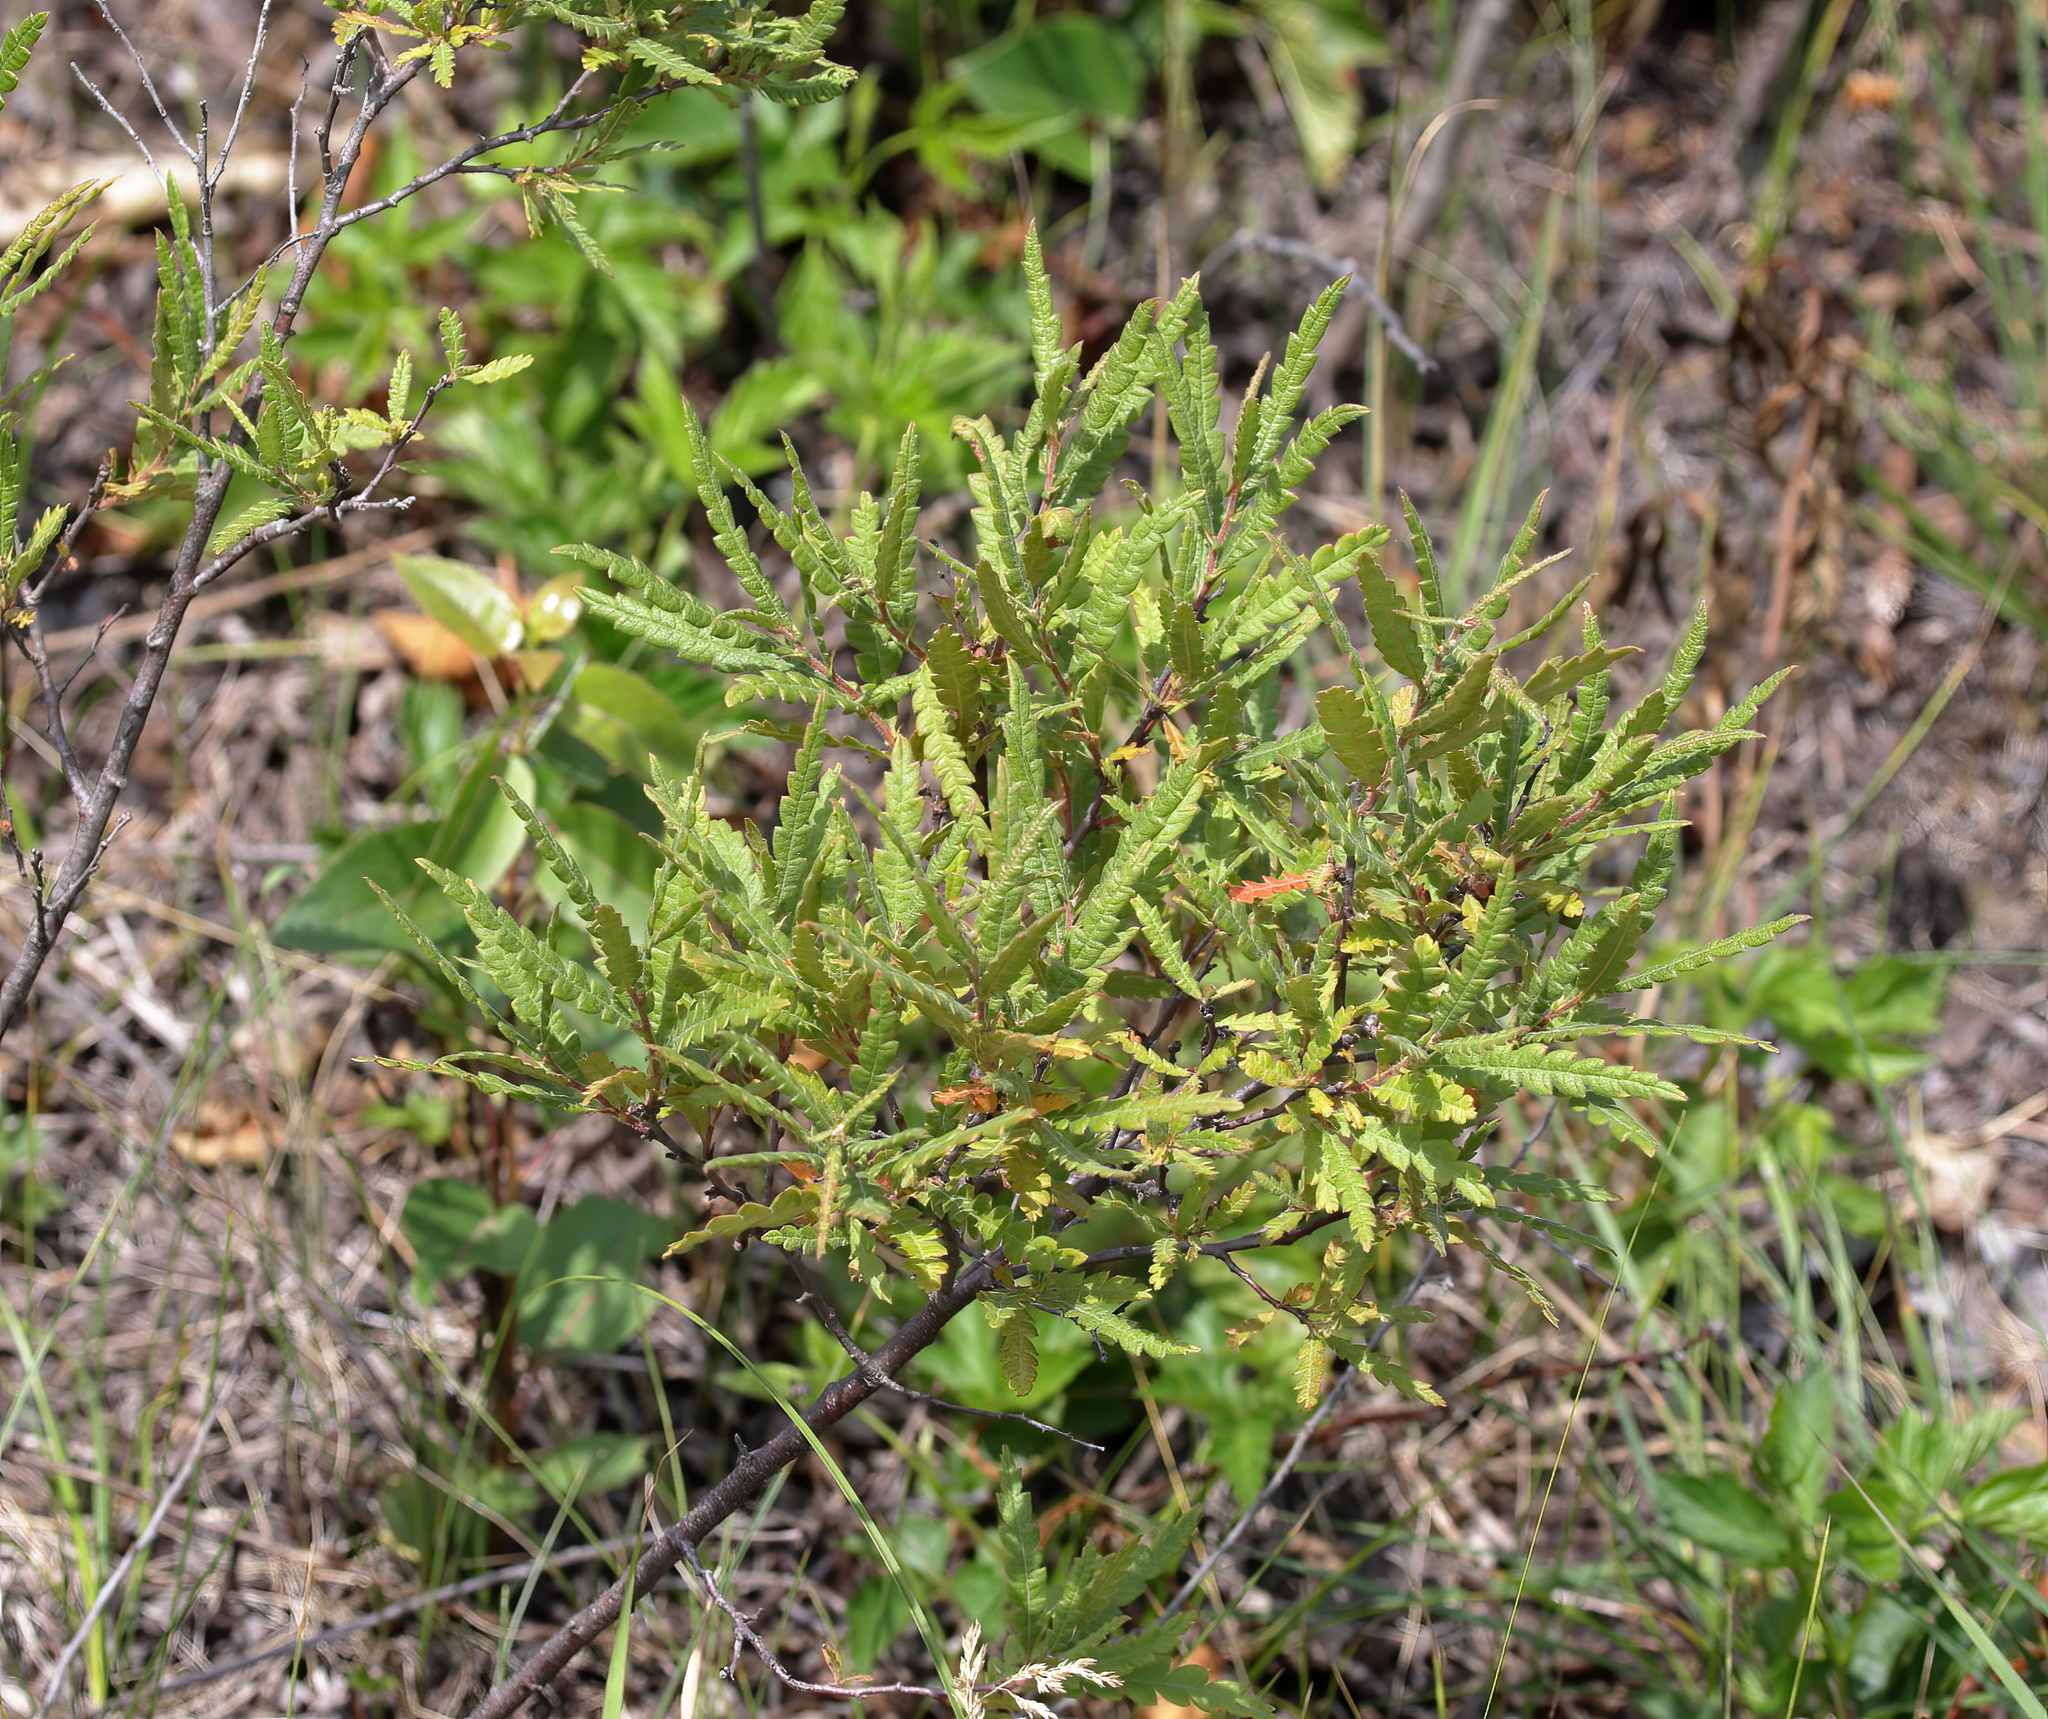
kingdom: Plantae
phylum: Tracheophyta
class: Magnoliopsida
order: Fagales
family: Myricaceae
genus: Comptonia
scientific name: Comptonia peregrina
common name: Sweet-fern
